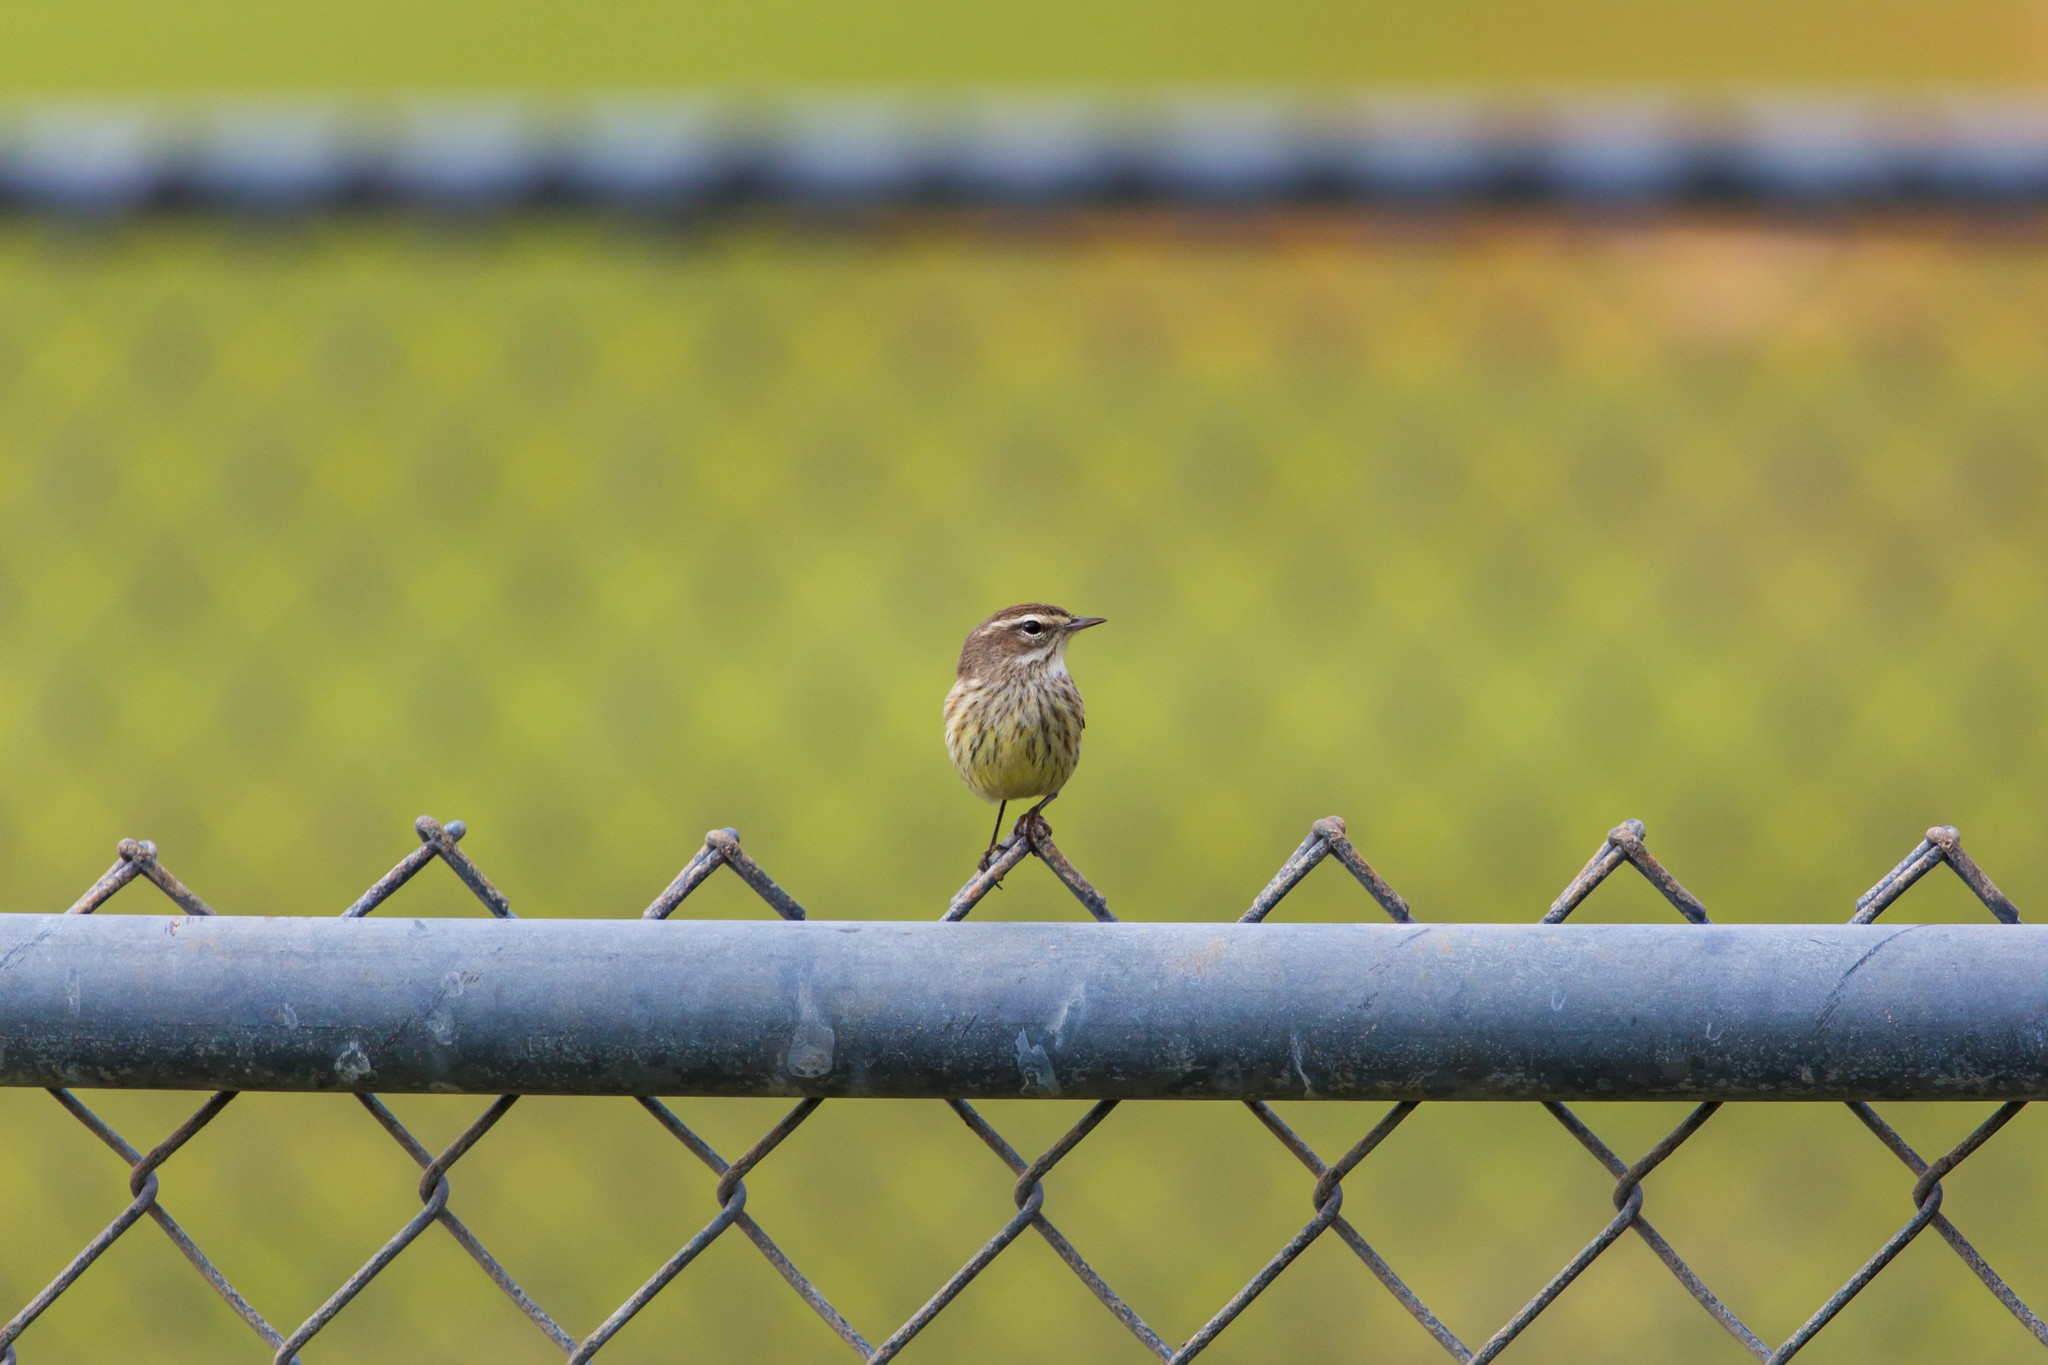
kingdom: Animalia
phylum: Chordata
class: Aves
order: Passeriformes
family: Parulidae
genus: Setophaga
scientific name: Setophaga palmarum
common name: Palm warbler
